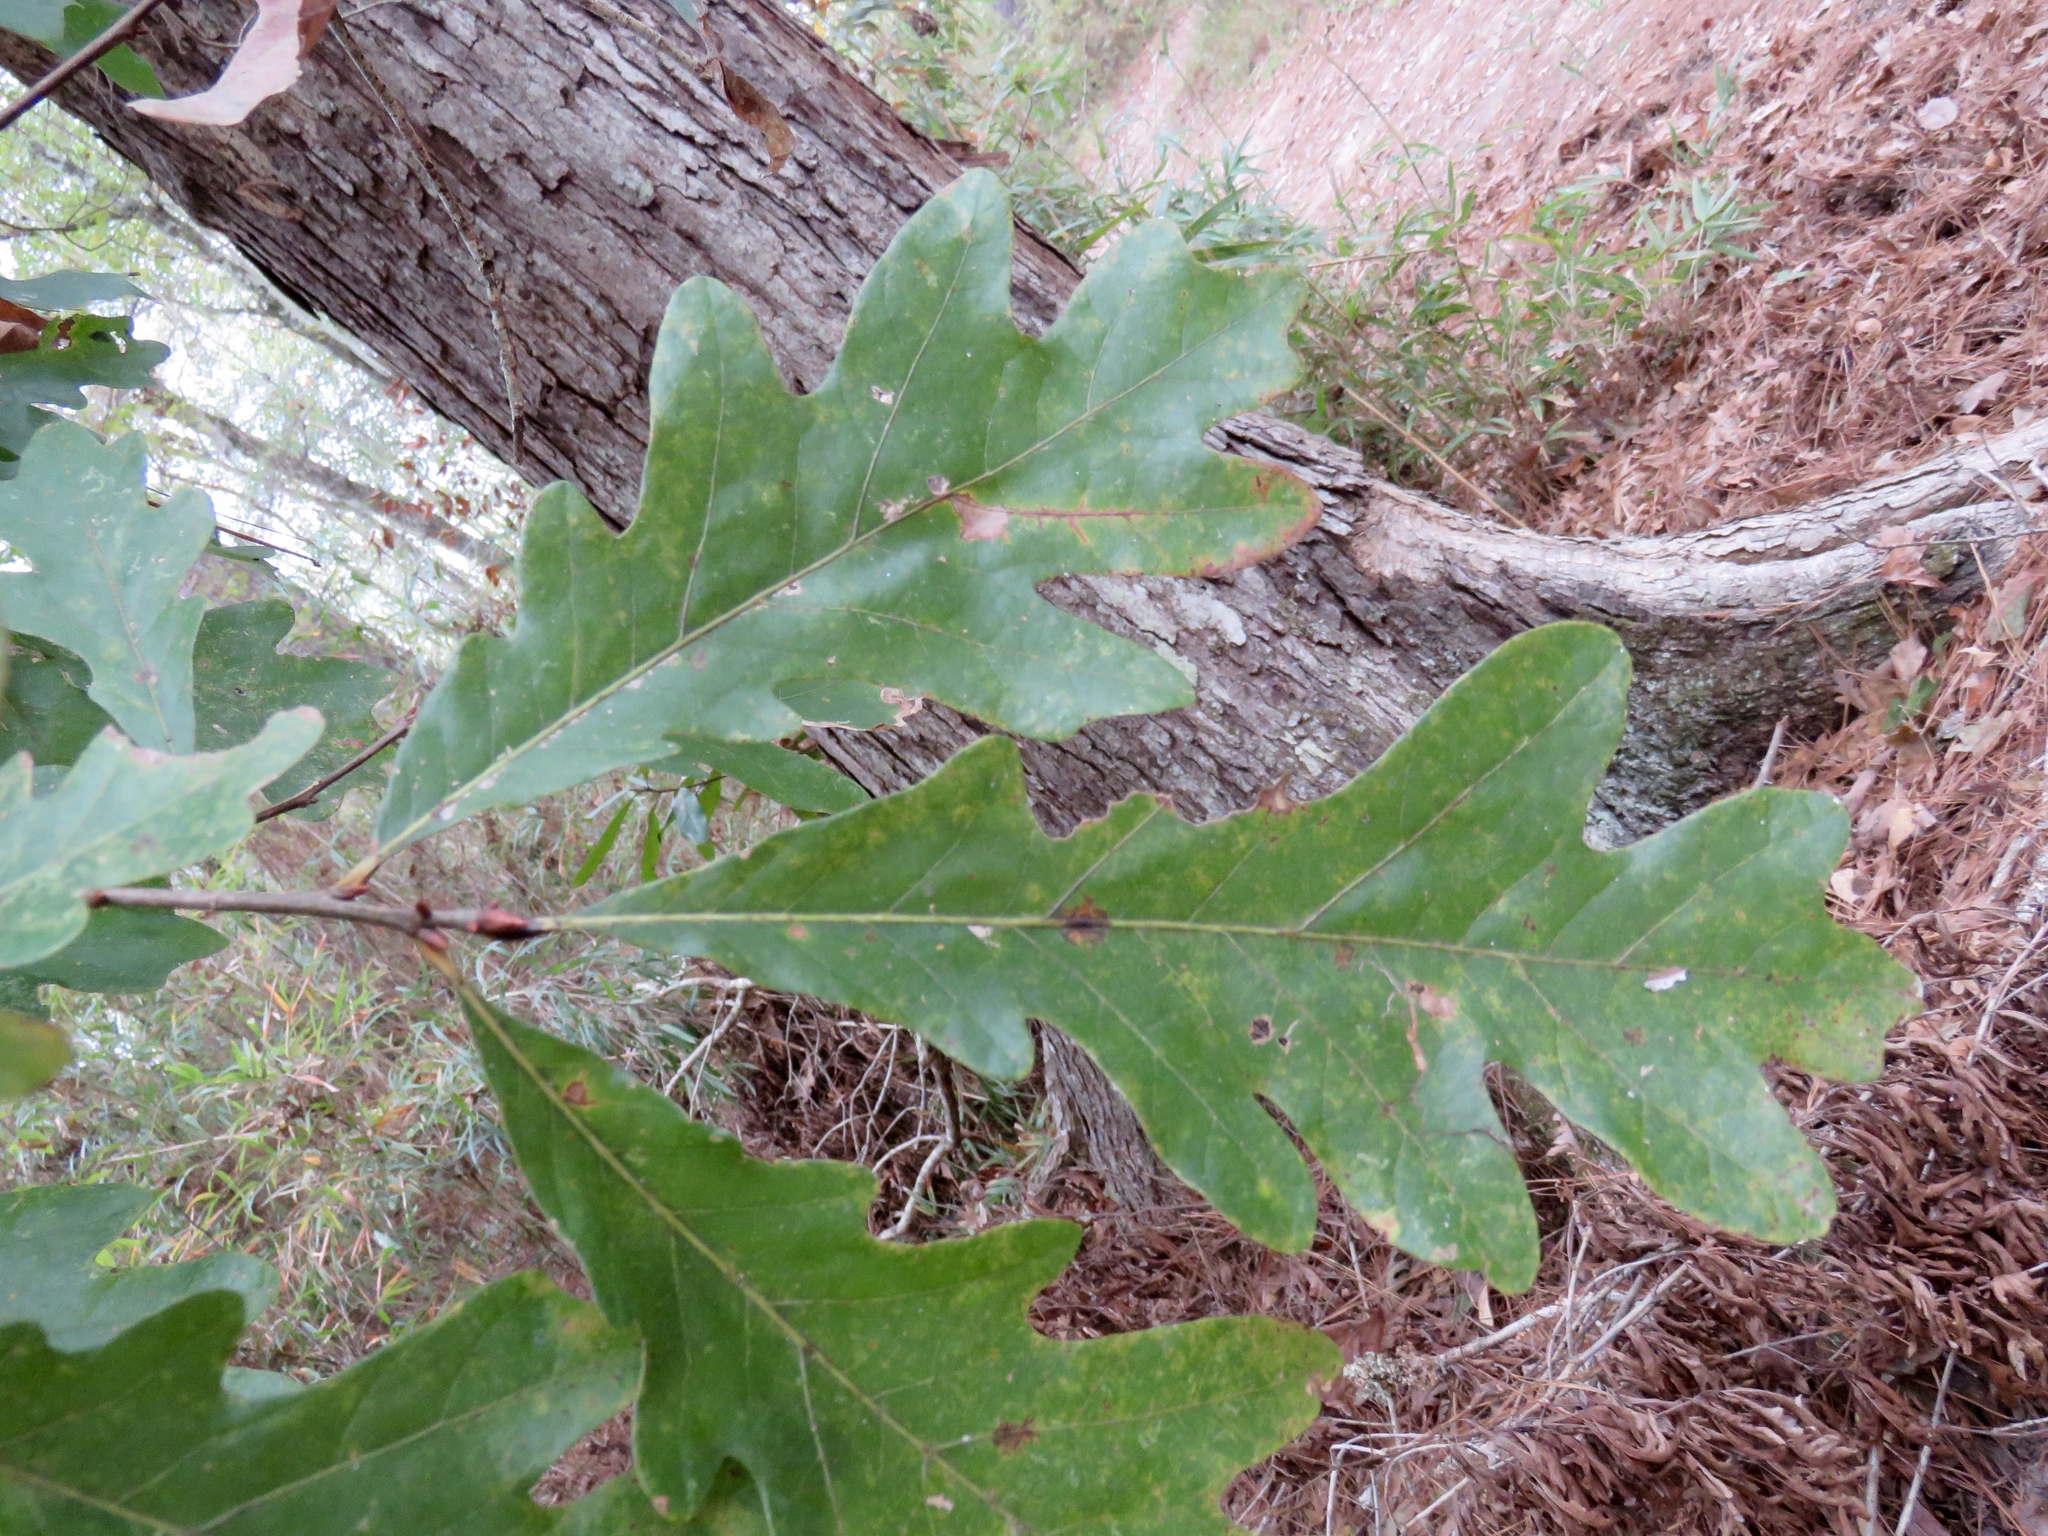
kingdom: Plantae
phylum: Tracheophyta
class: Magnoliopsida
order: Fagales
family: Fagaceae
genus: Quercus
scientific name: Quercus alba
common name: White oak
